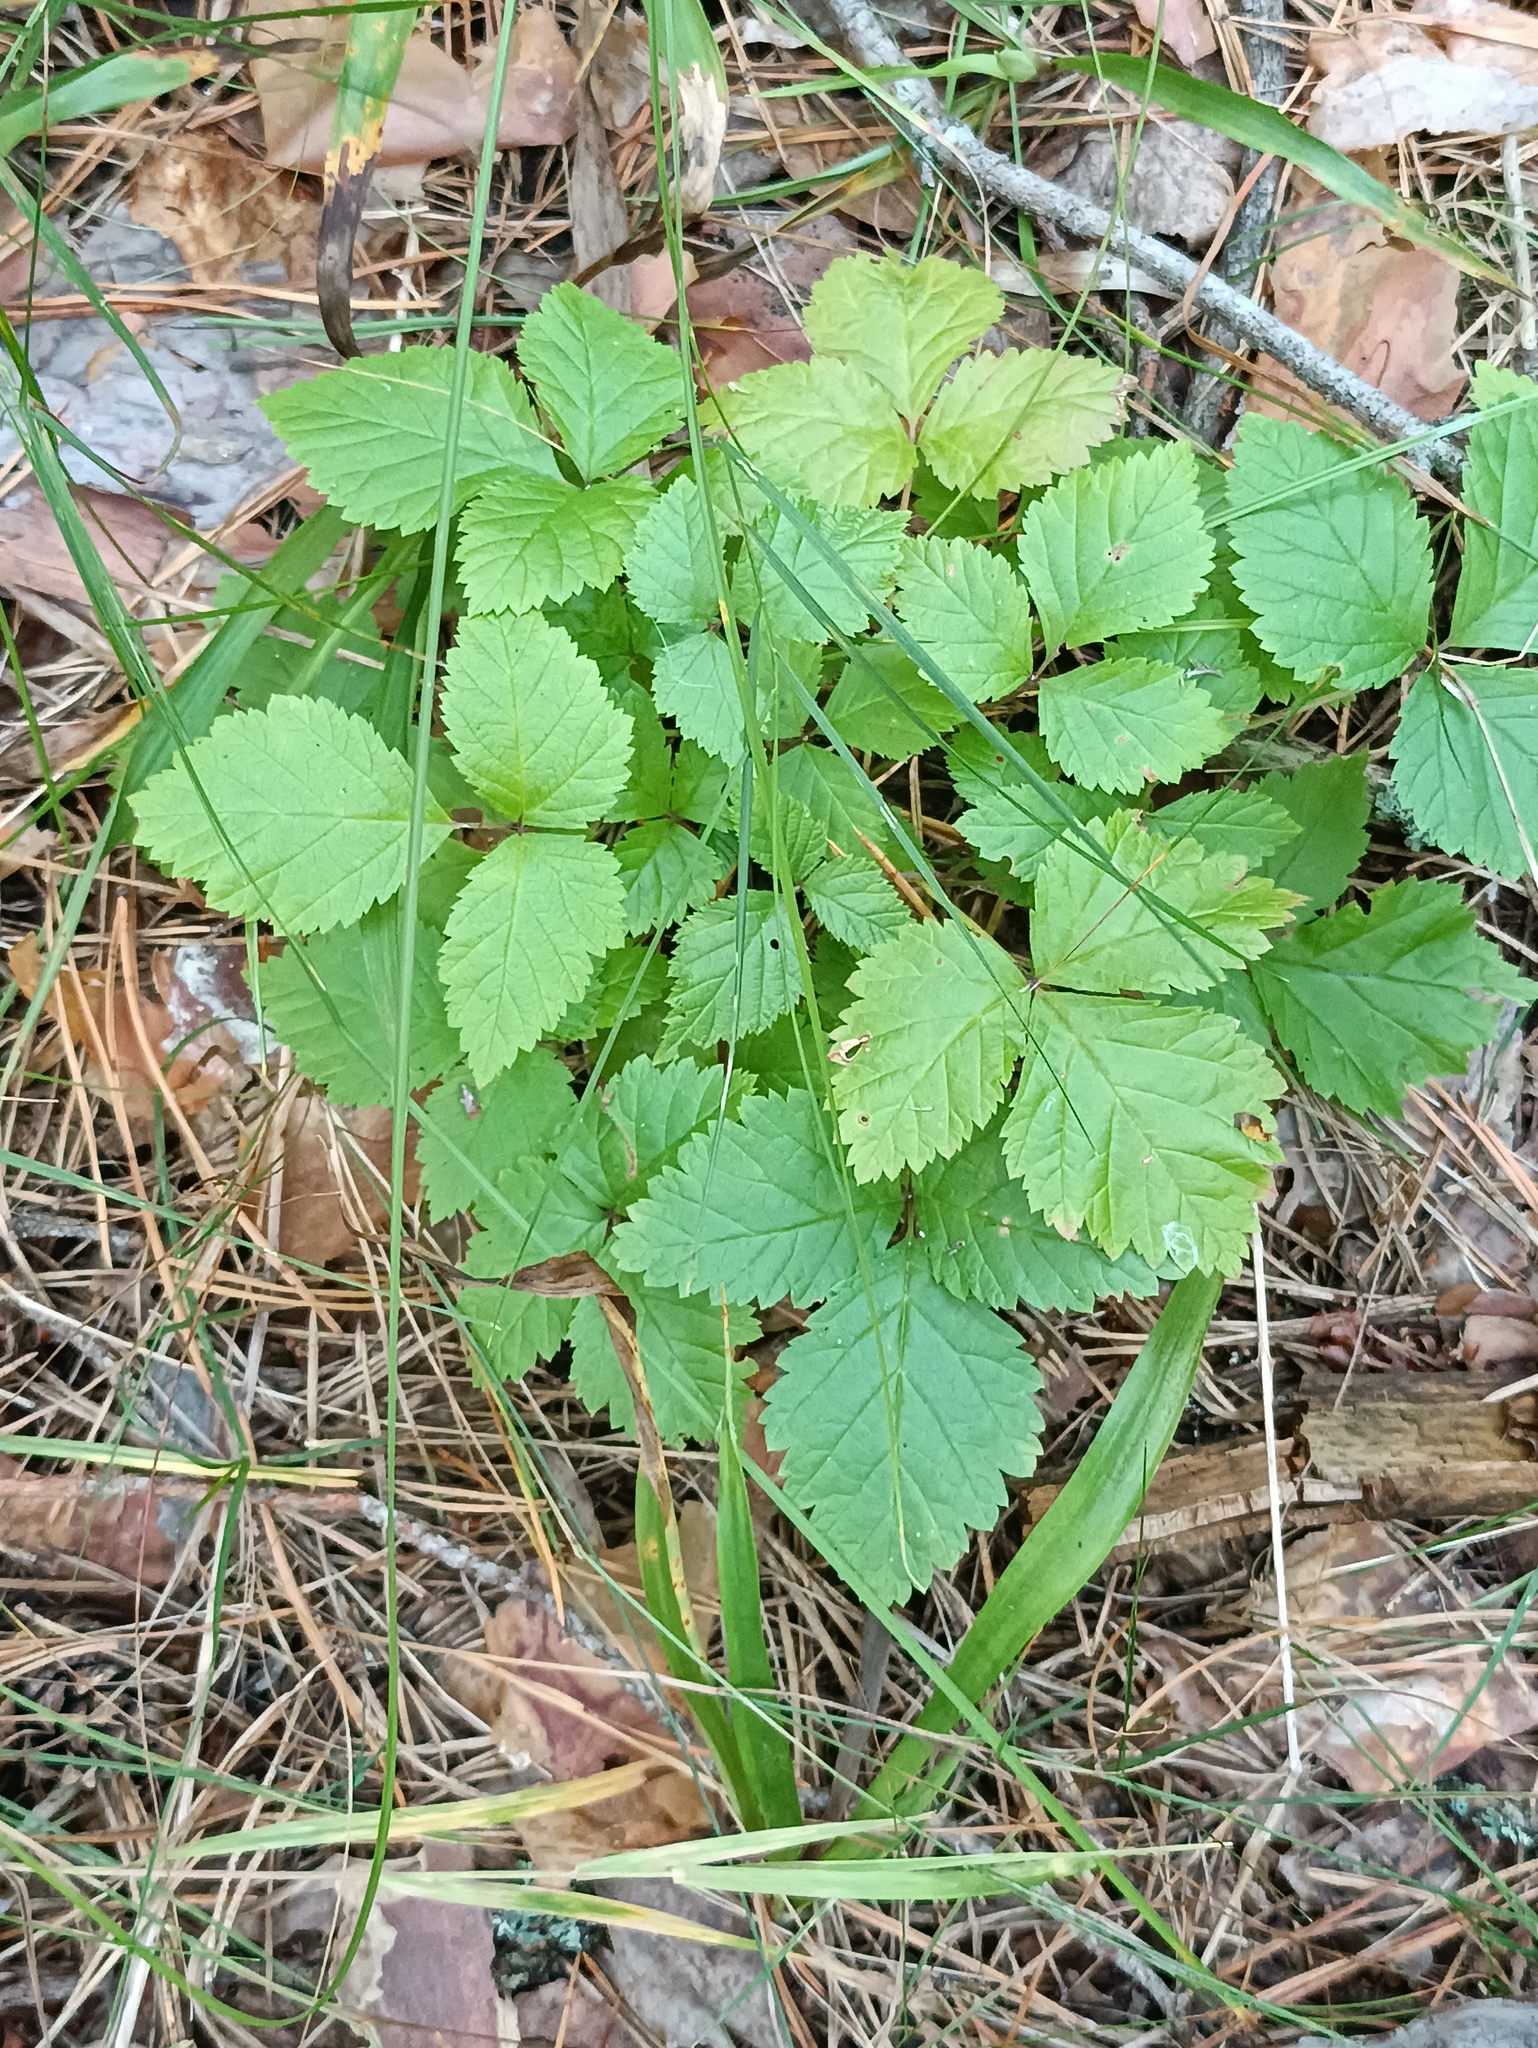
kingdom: Plantae
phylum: Tracheophyta
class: Magnoliopsida
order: Rosales
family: Rosaceae
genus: Rubus
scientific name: Rubus saxatilis
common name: Stone bramble
